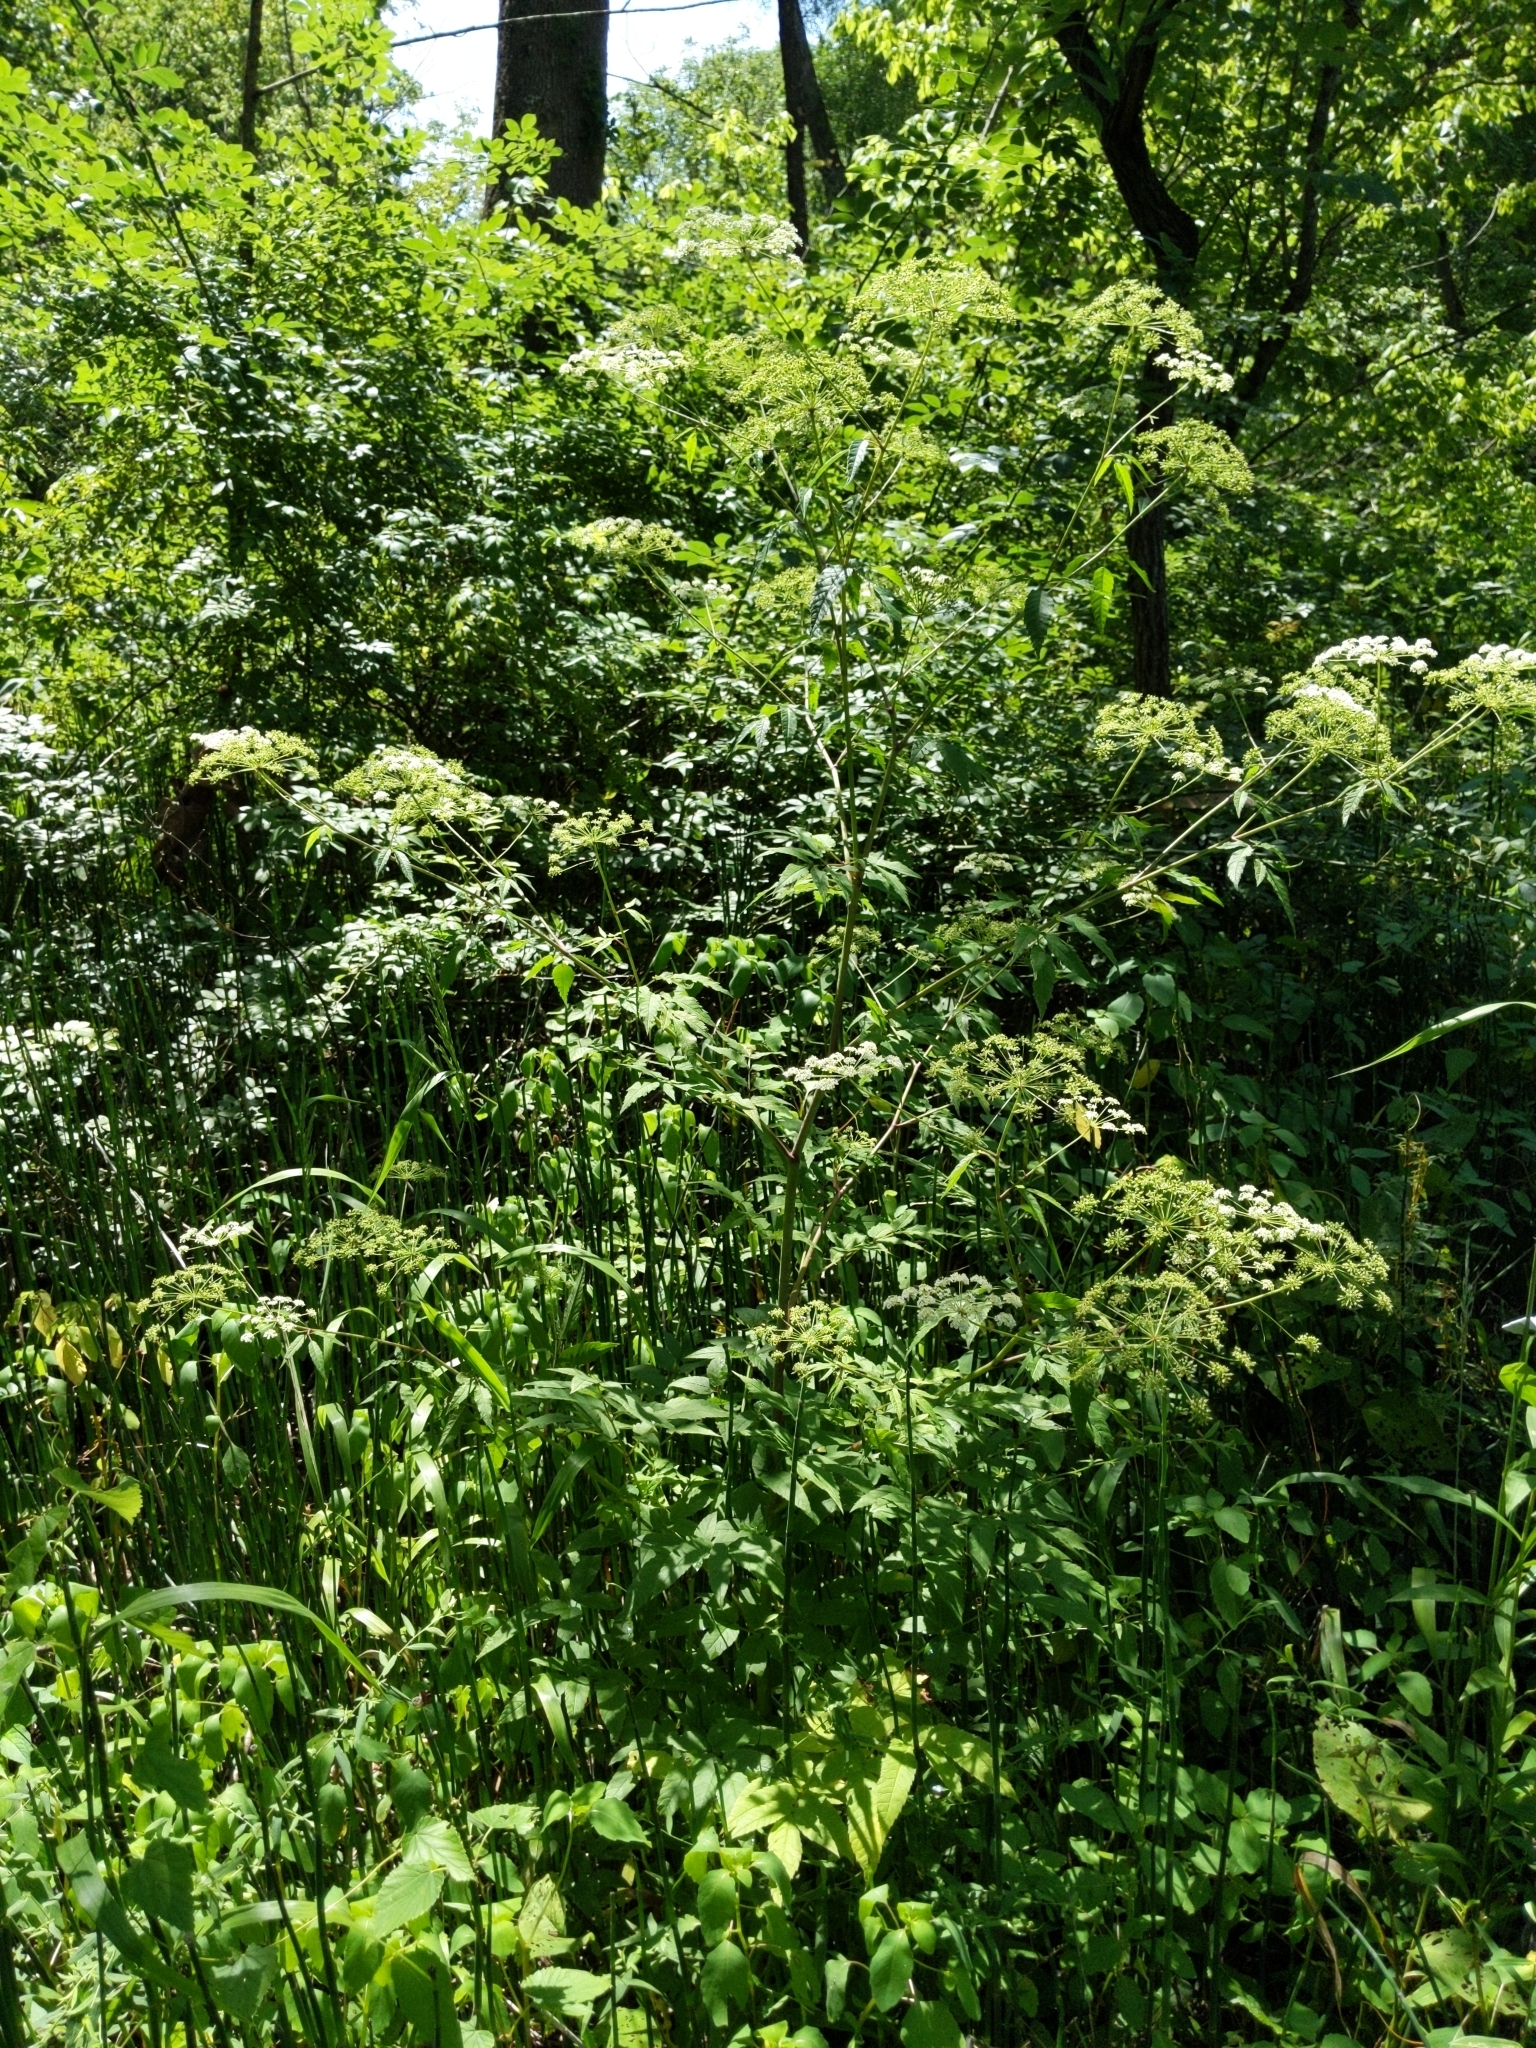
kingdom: Plantae
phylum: Tracheophyta
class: Magnoliopsida
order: Apiales
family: Apiaceae
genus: Cicuta
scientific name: Cicuta maculata
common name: Spotted cowbane
